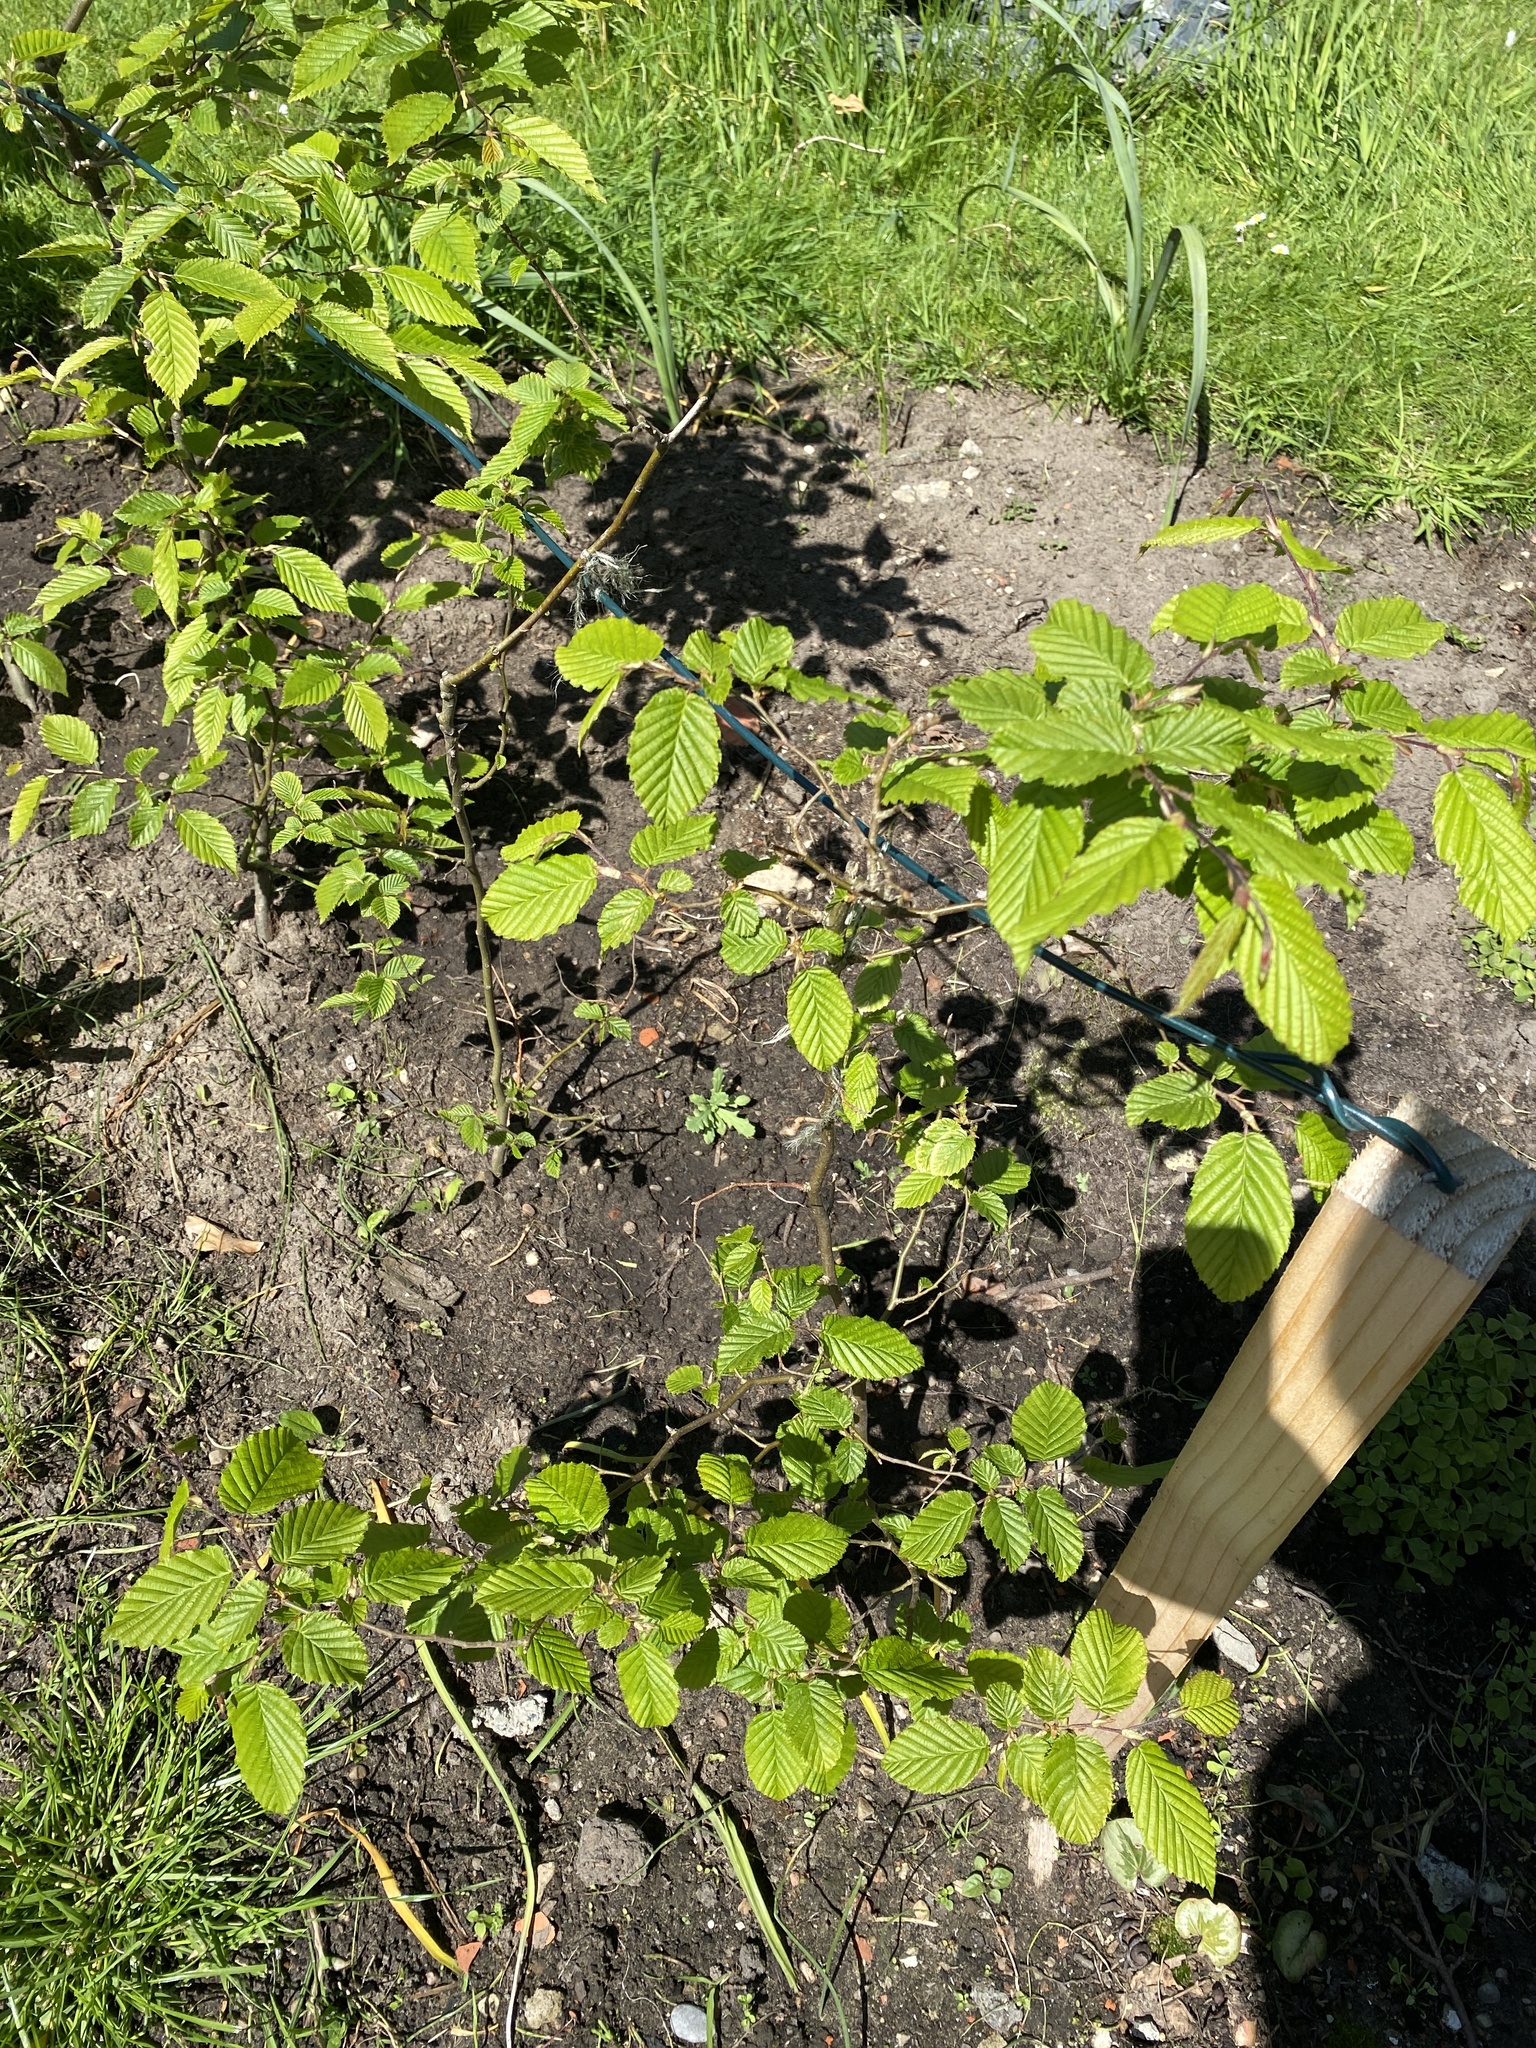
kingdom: Plantae
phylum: Tracheophyta
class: Magnoliopsida
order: Fagales
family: Betulaceae
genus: Carpinus
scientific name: Carpinus betulus
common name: Hornbeam
